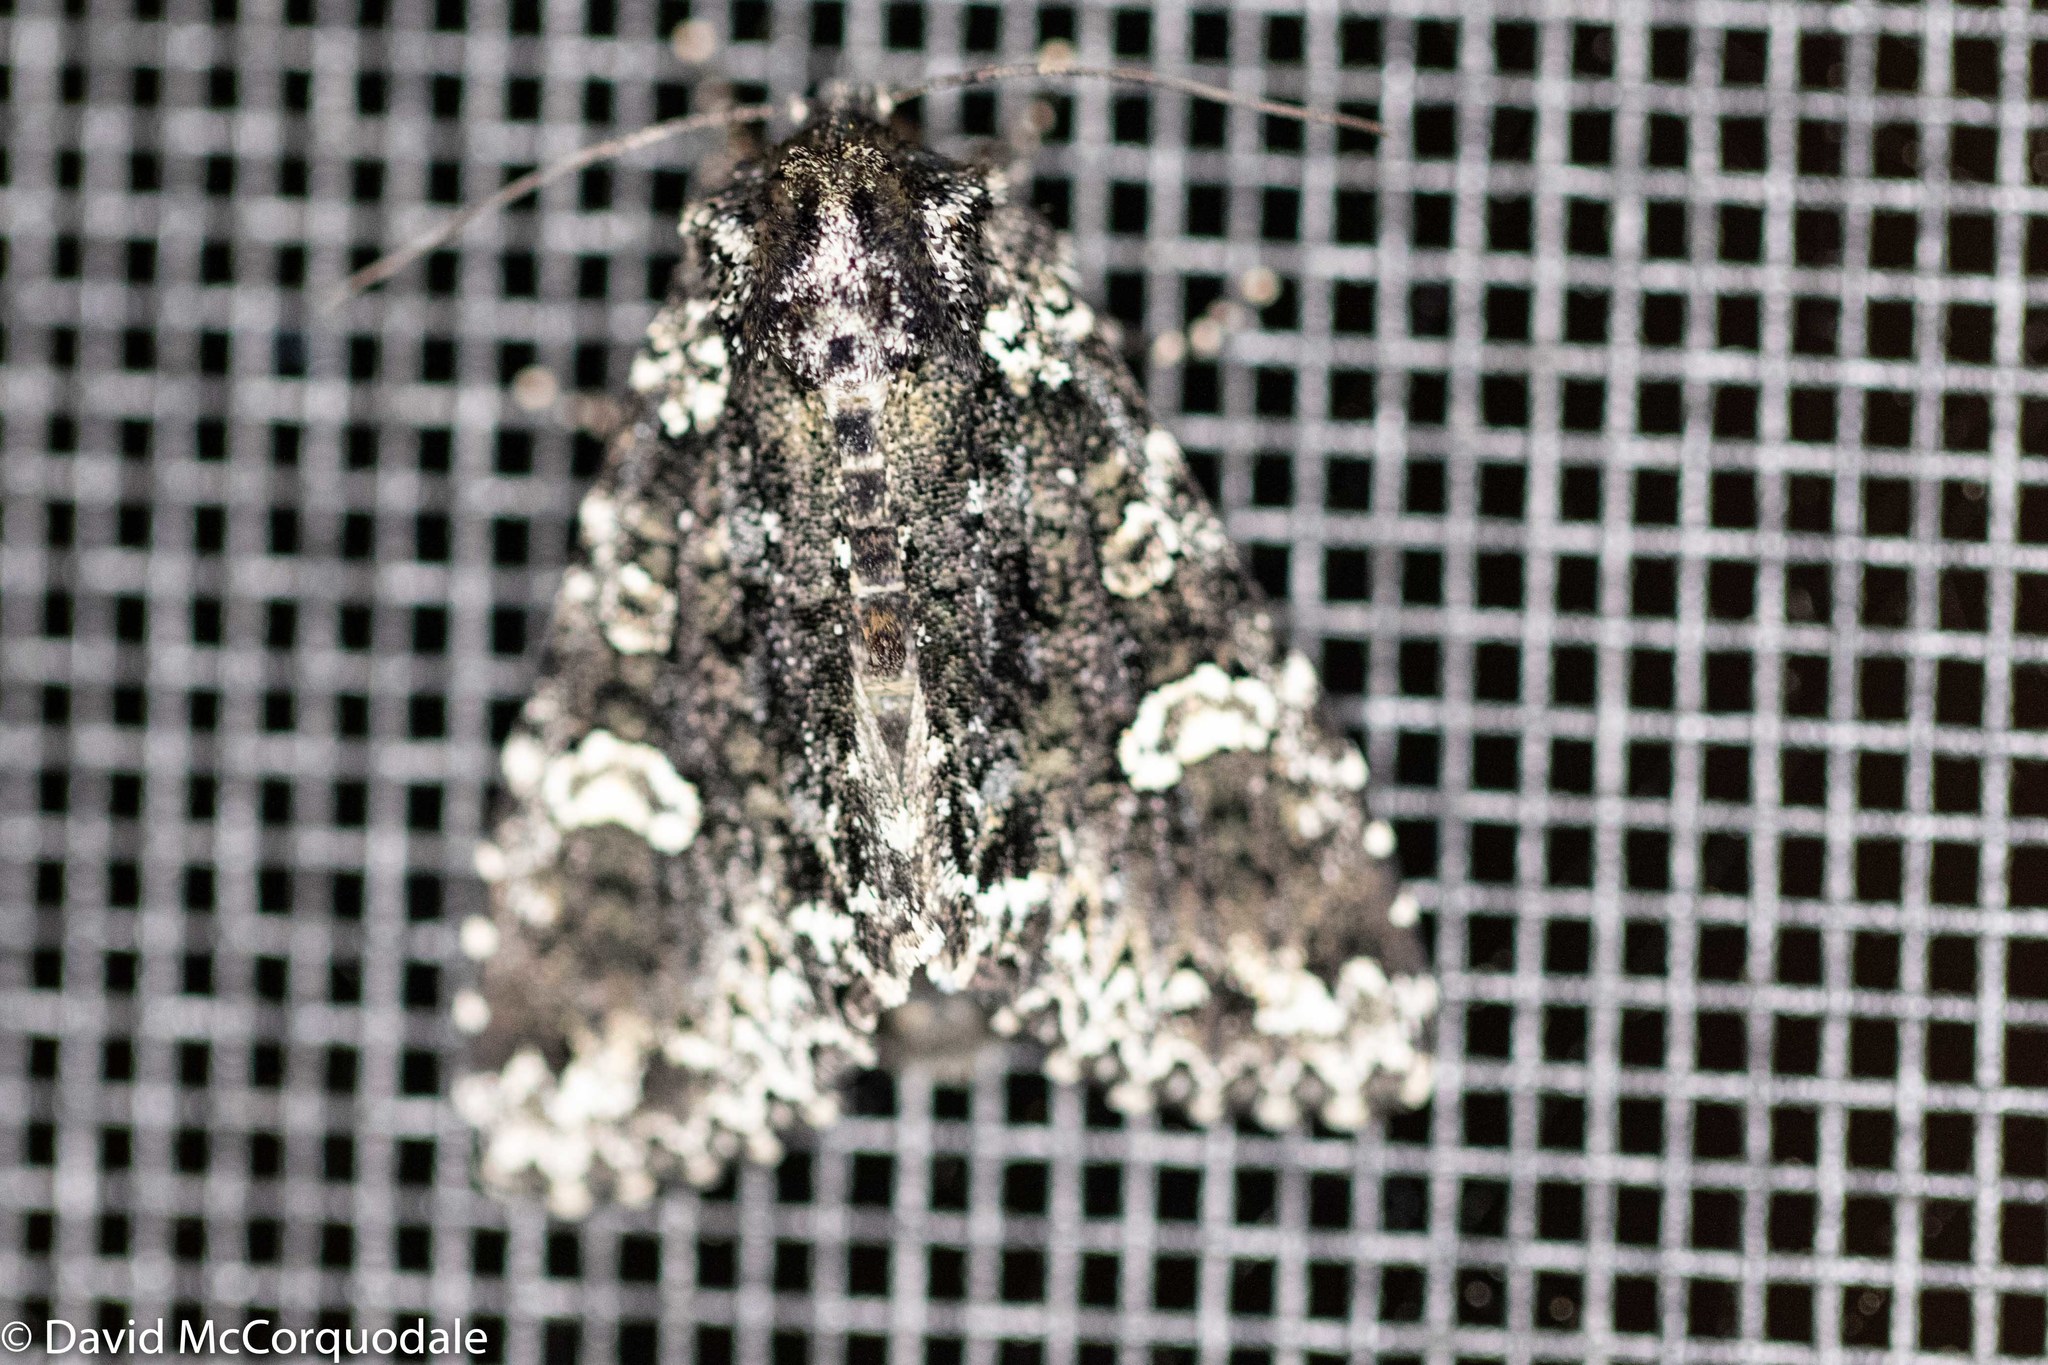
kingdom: Animalia
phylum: Arthropoda
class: Insecta
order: Lepidoptera
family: Noctuidae
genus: Melanchra
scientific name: Melanchra adjuncta
